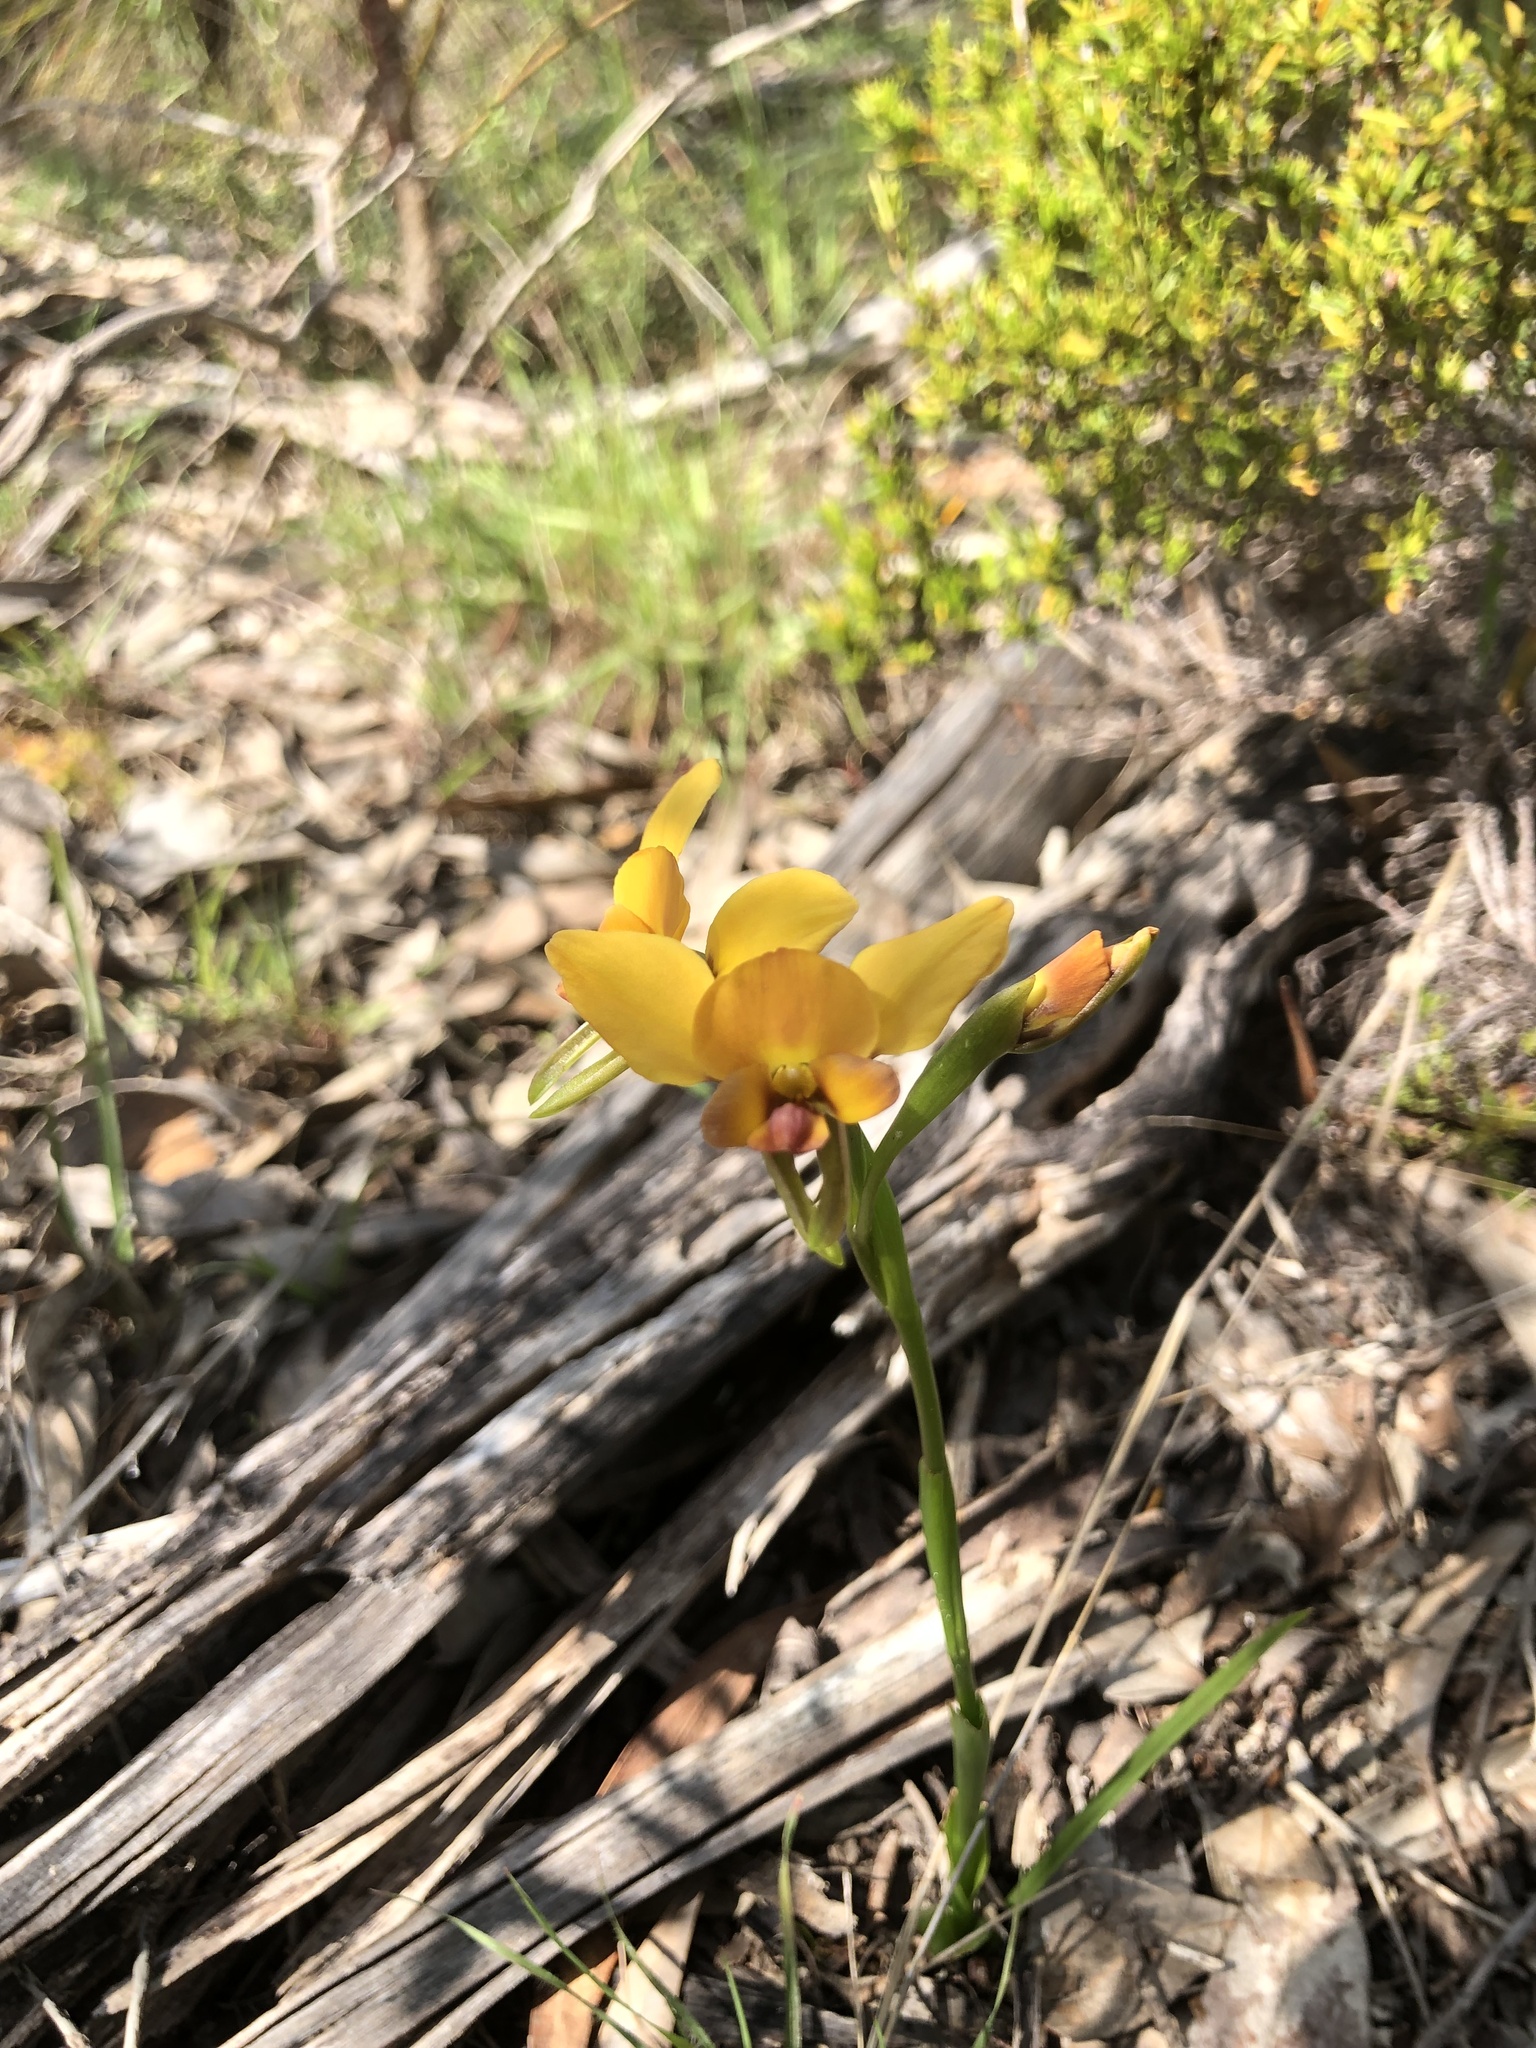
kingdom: Plantae
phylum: Tracheophyta
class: Liliopsida
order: Asparagales
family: Orchidaceae
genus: Diuris
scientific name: Diuris orientis
